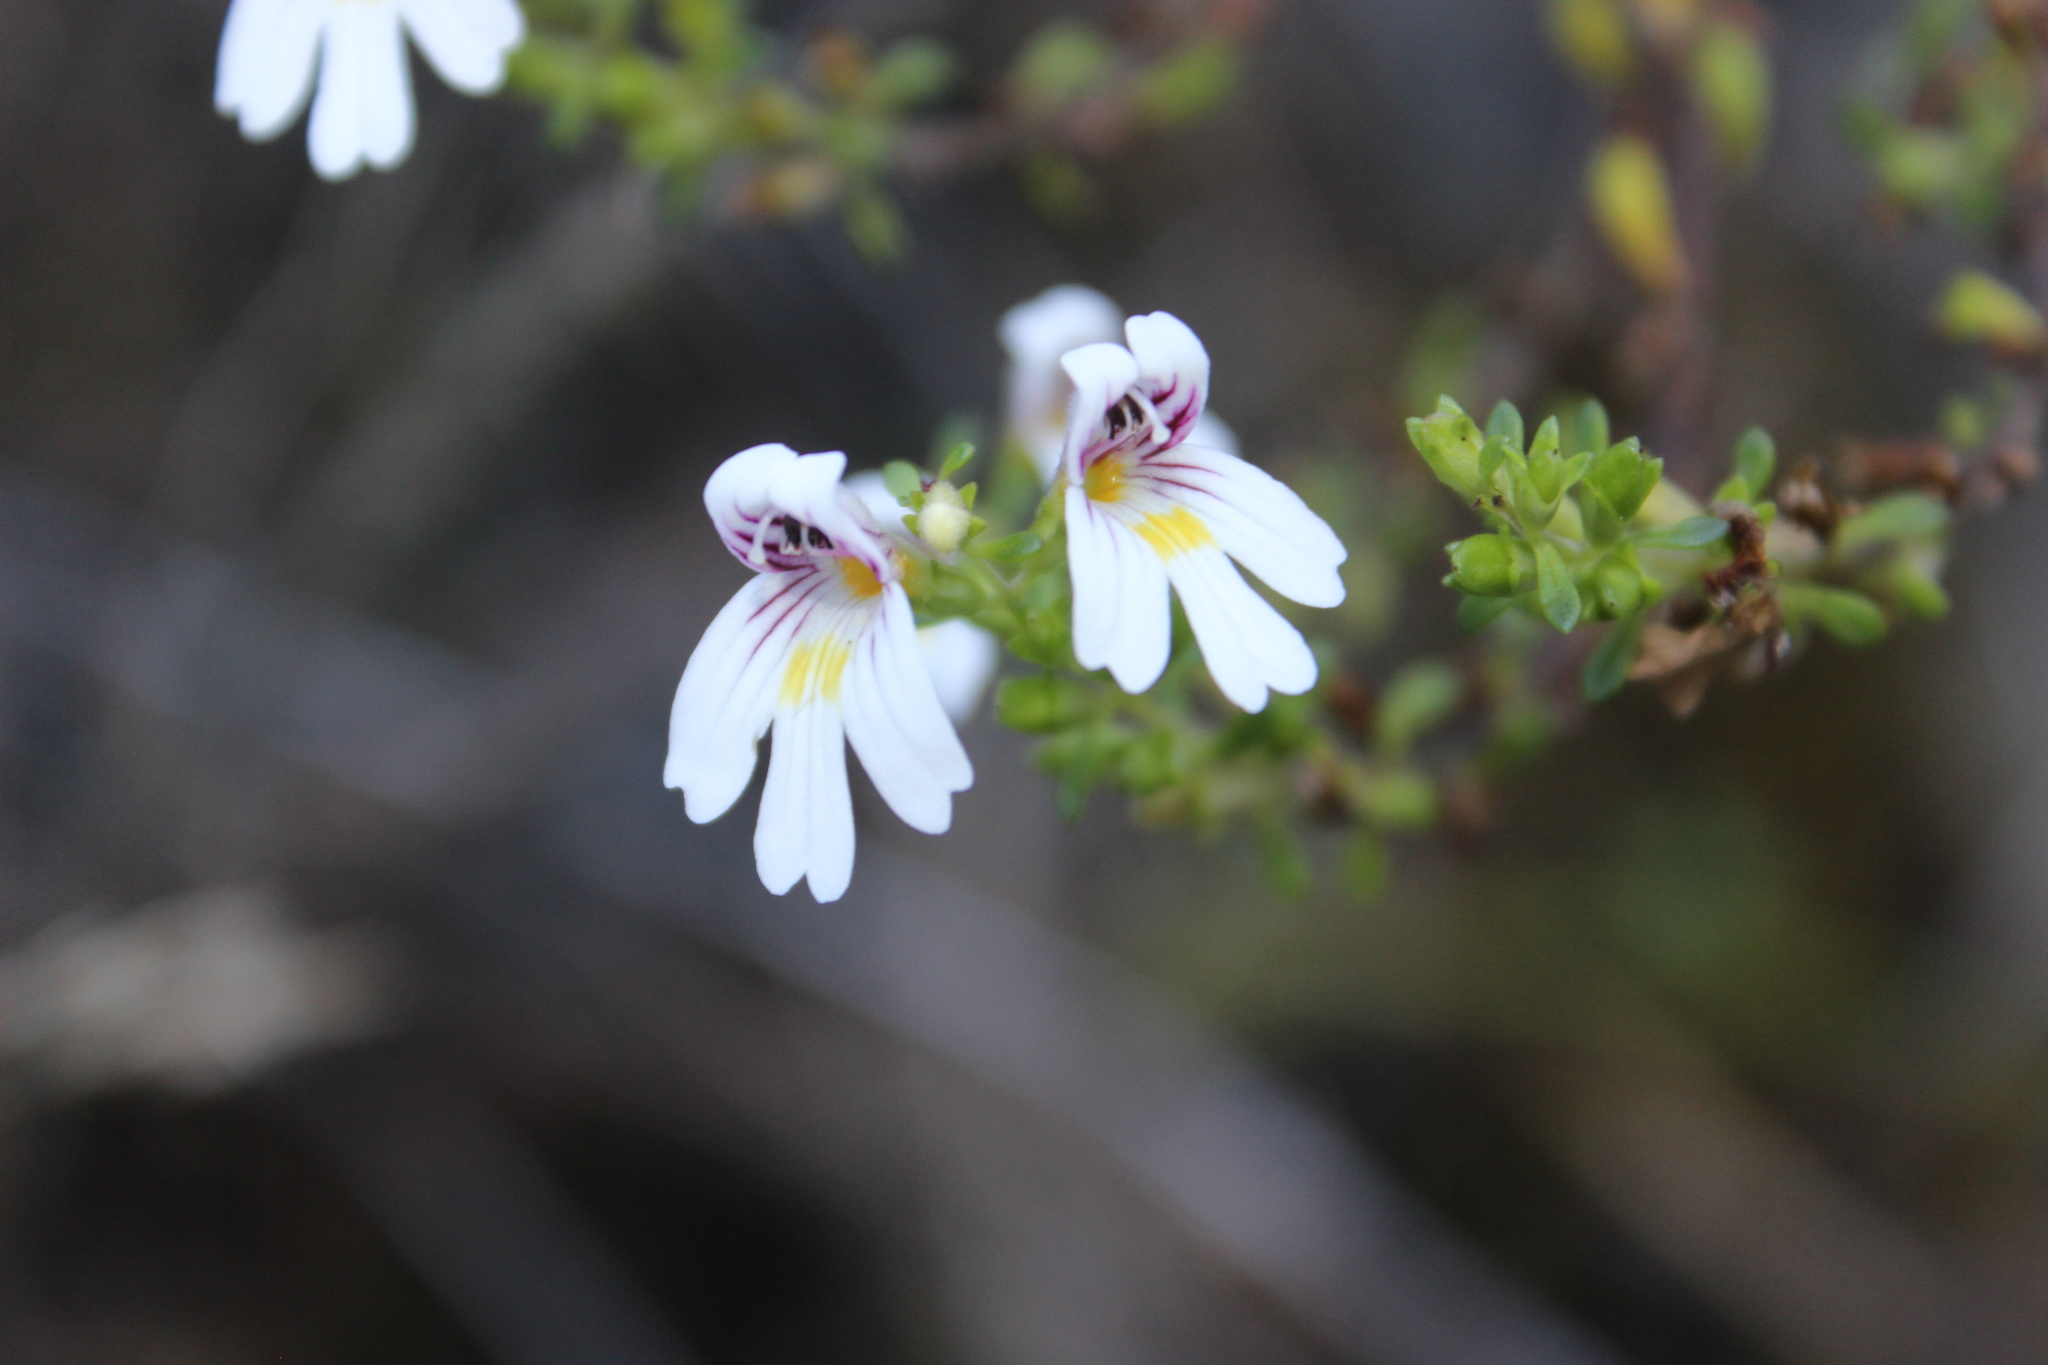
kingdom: Plantae
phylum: Tracheophyta
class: Magnoliopsida
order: Lamiales
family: Orobanchaceae
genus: Euphrasia
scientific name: Euphrasia cuneata
